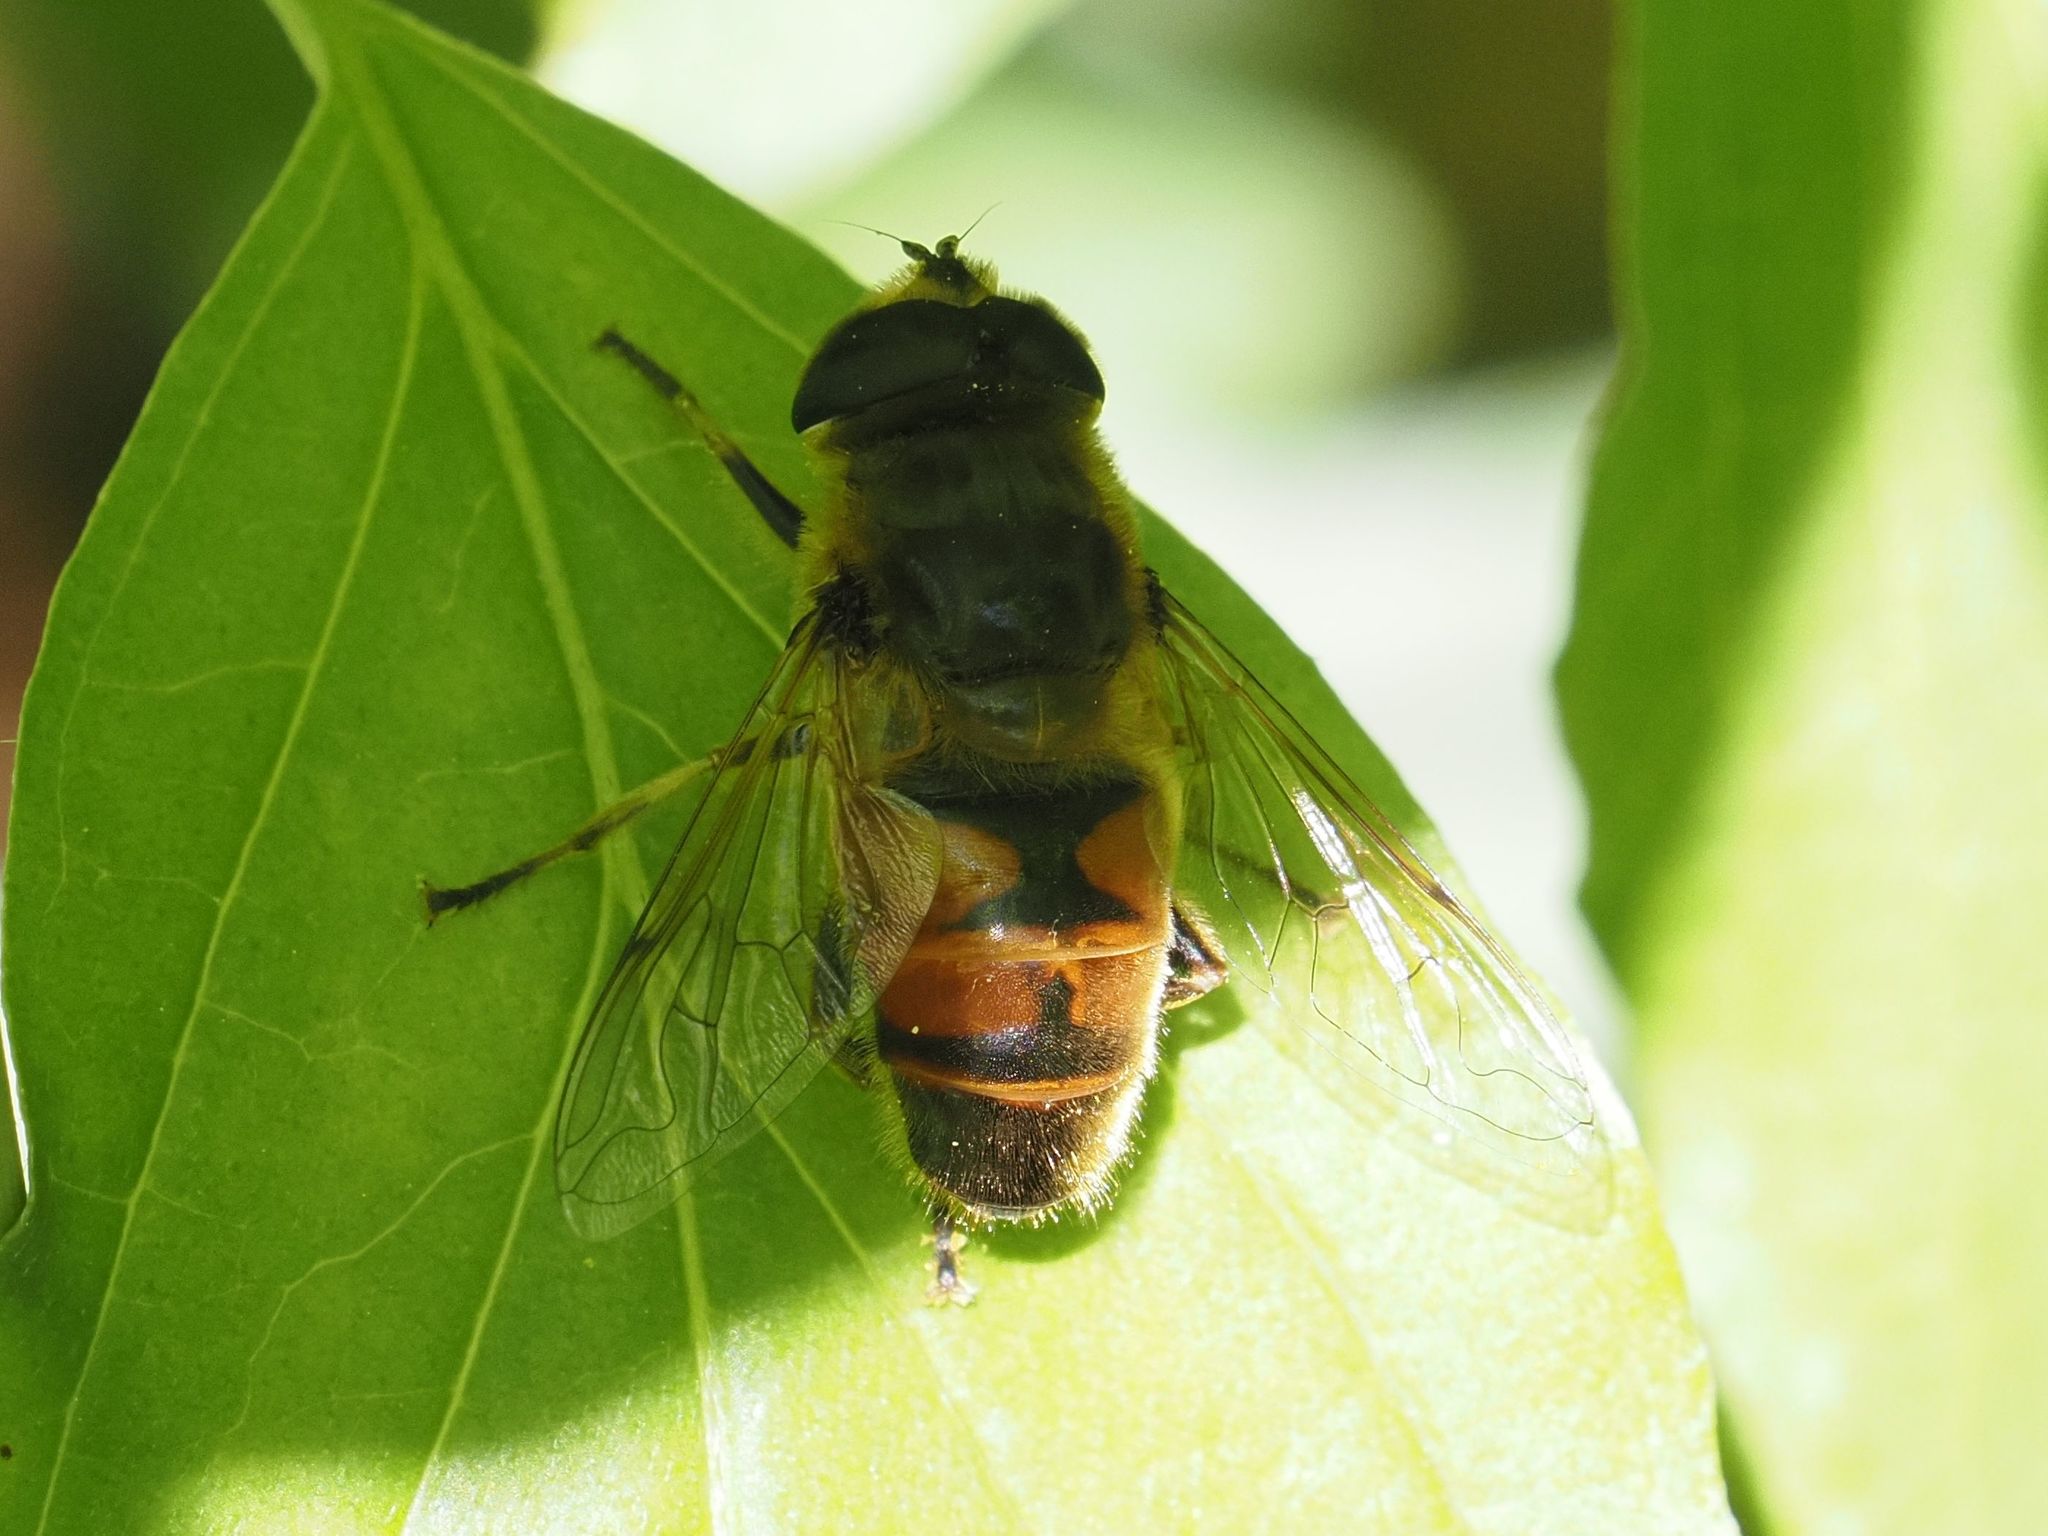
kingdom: Animalia
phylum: Arthropoda
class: Insecta
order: Diptera
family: Syrphidae
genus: Eristalis
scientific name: Eristalis tenax
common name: Drone fly
